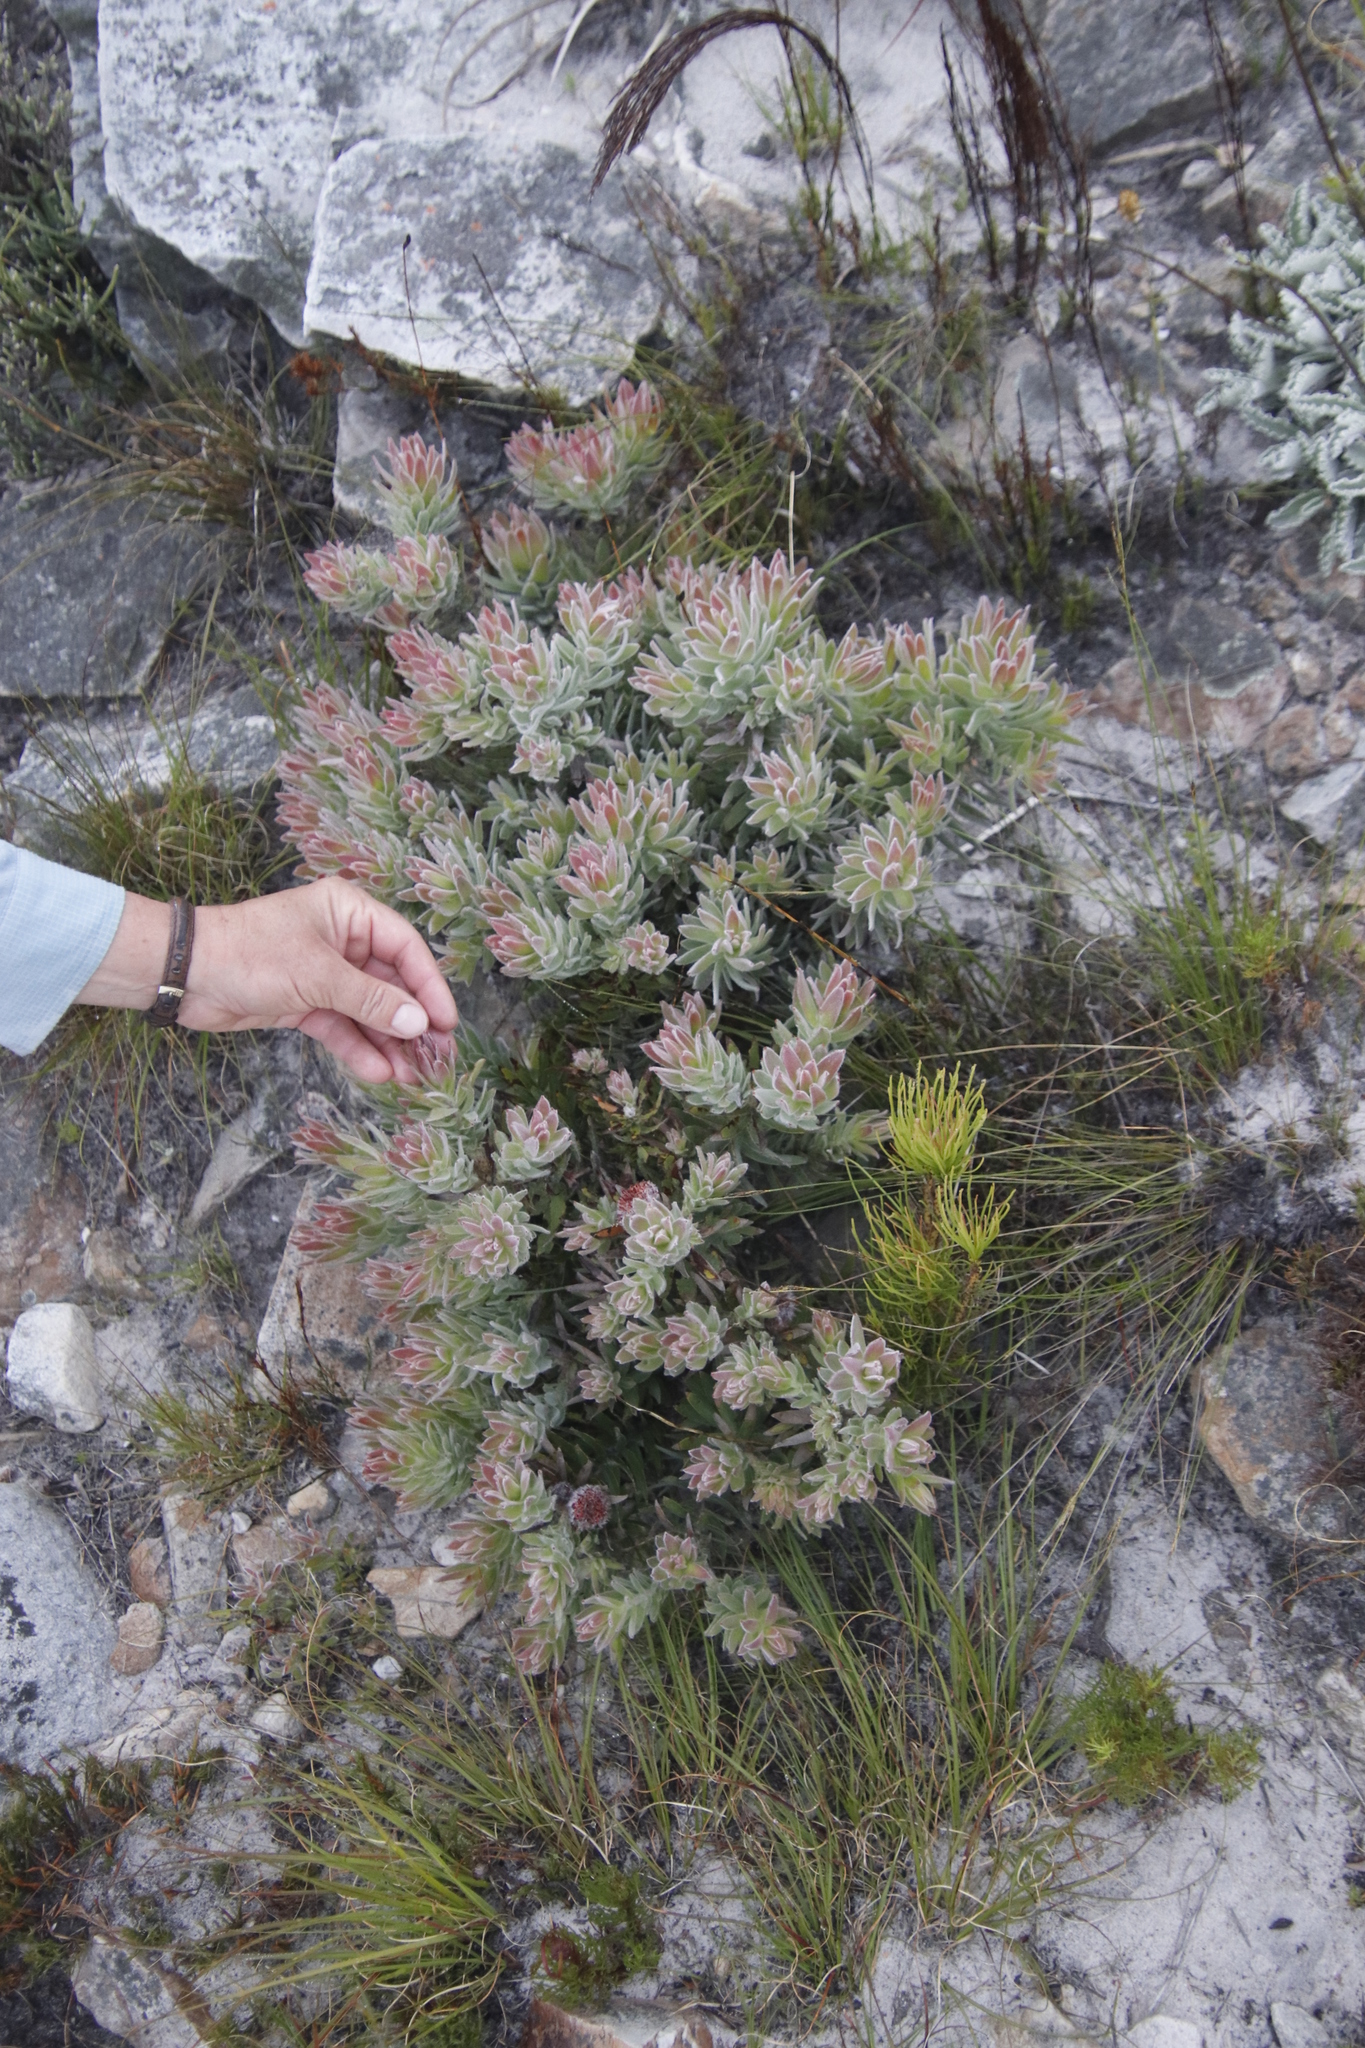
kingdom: Plantae
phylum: Tracheophyta
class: Magnoliopsida
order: Proteales
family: Proteaceae
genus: Leucadendron
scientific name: Leucadendron spissifolium
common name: Spear-leaf conebush
